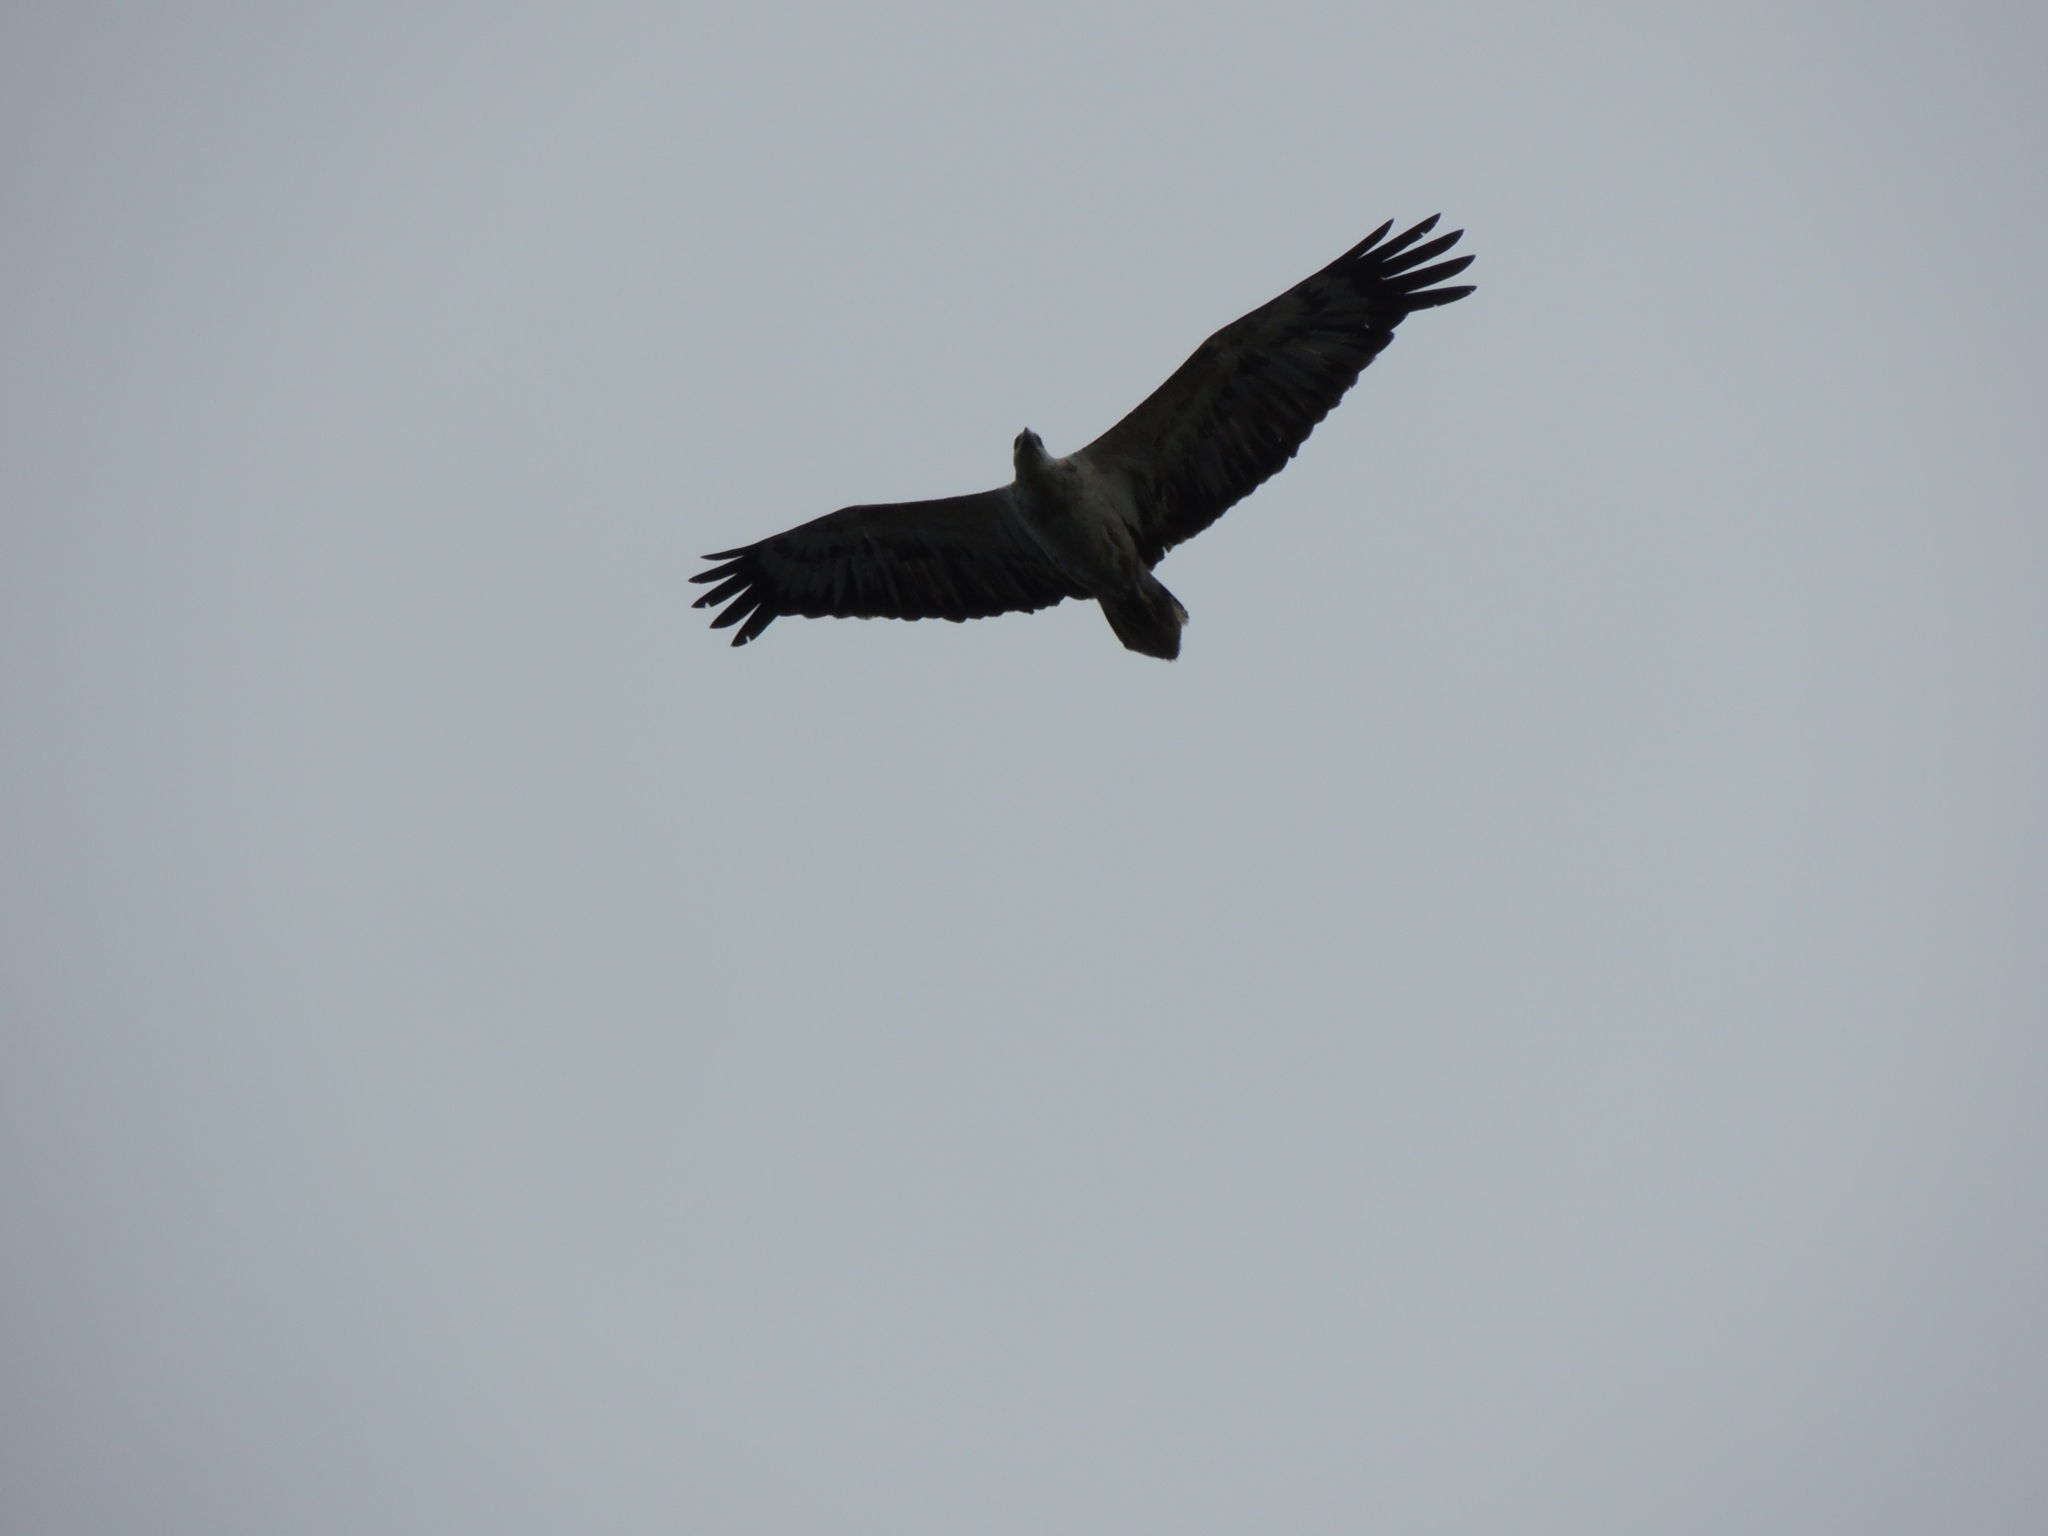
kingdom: Animalia
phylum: Chordata
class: Aves
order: Accipitriformes
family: Accipitridae
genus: Haliaeetus
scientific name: Haliaeetus leucogaster
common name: White-bellied sea eagle
